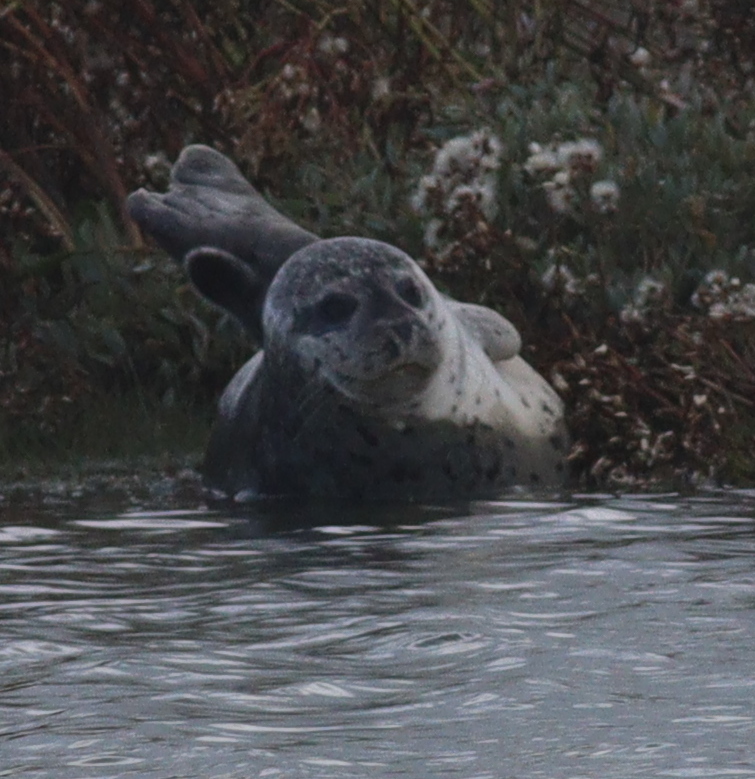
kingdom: Animalia
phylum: Chordata
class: Mammalia
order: Carnivora
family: Phocidae
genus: Phoca
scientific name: Phoca vitulina
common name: Harbor seal
